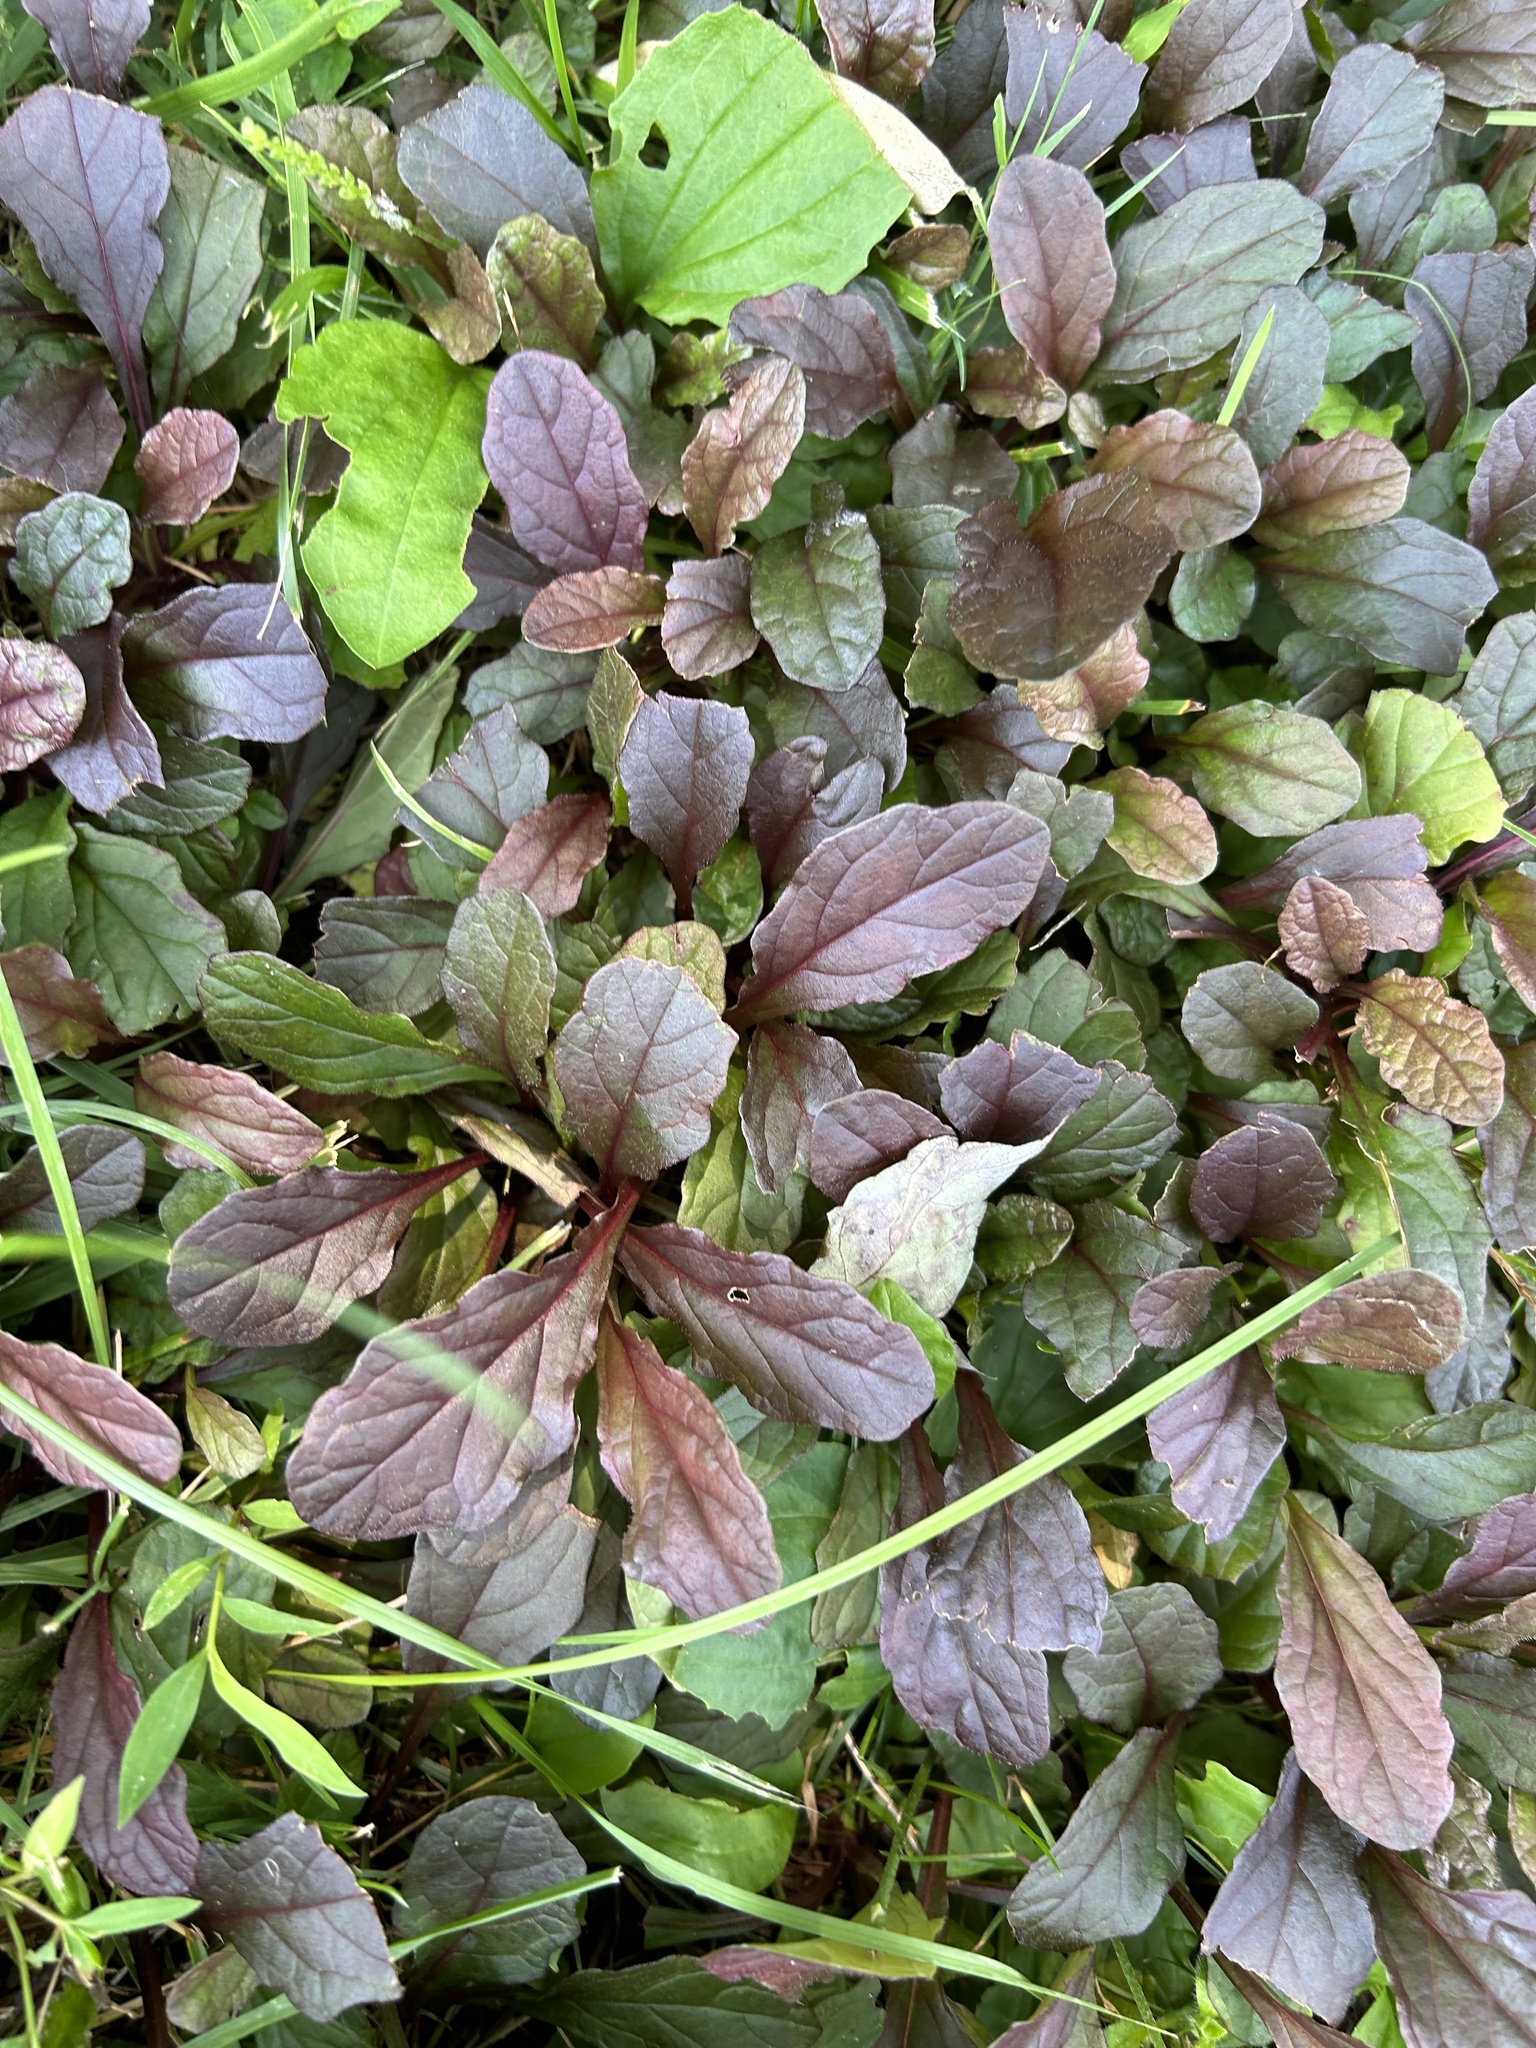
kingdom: Plantae
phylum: Tracheophyta
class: Magnoliopsida
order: Lamiales
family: Lamiaceae
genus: Ajuga
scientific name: Ajuga reptans
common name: Bugle
